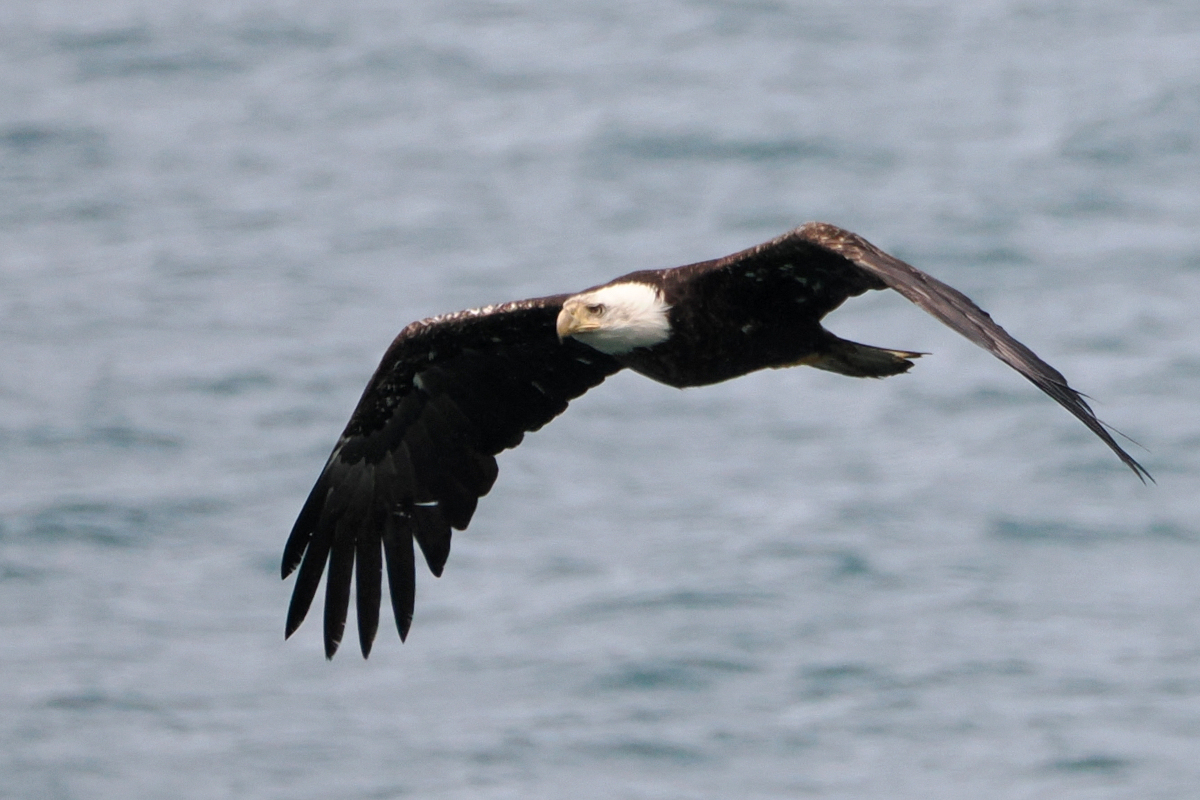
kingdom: Animalia
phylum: Chordata
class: Aves
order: Accipitriformes
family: Accipitridae
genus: Haliaeetus
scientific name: Haliaeetus leucocephalus
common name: Bald eagle
